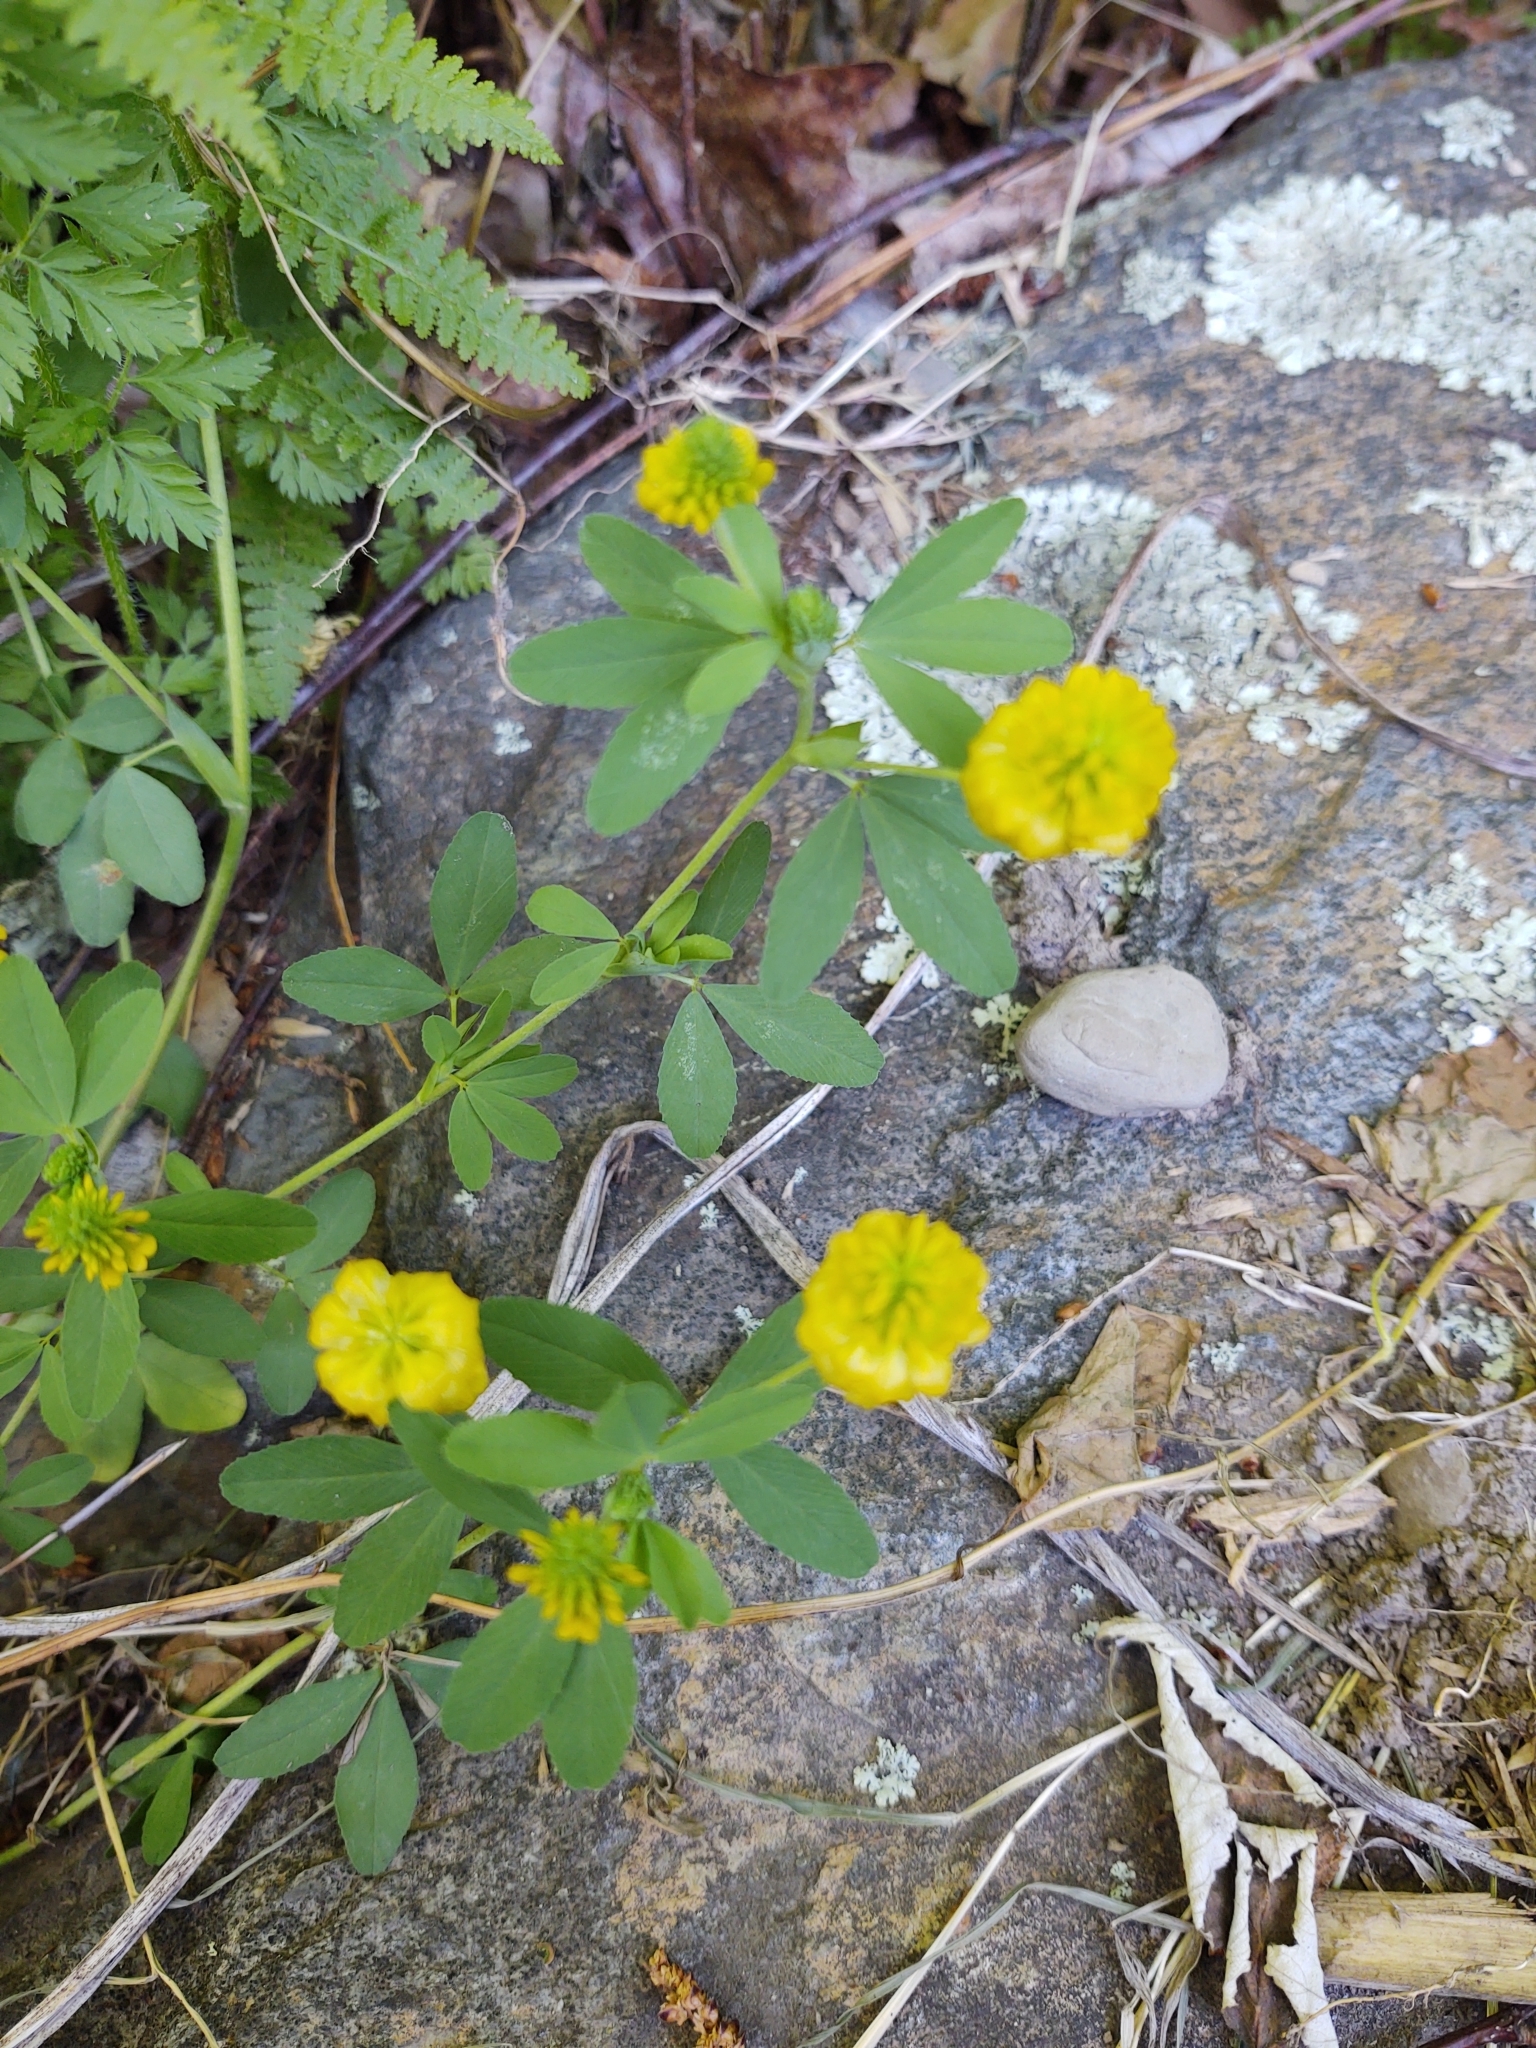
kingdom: Plantae
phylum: Tracheophyta
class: Magnoliopsida
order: Fabales
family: Fabaceae
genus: Trifolium
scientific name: Trifolium aureum
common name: Golden clover
